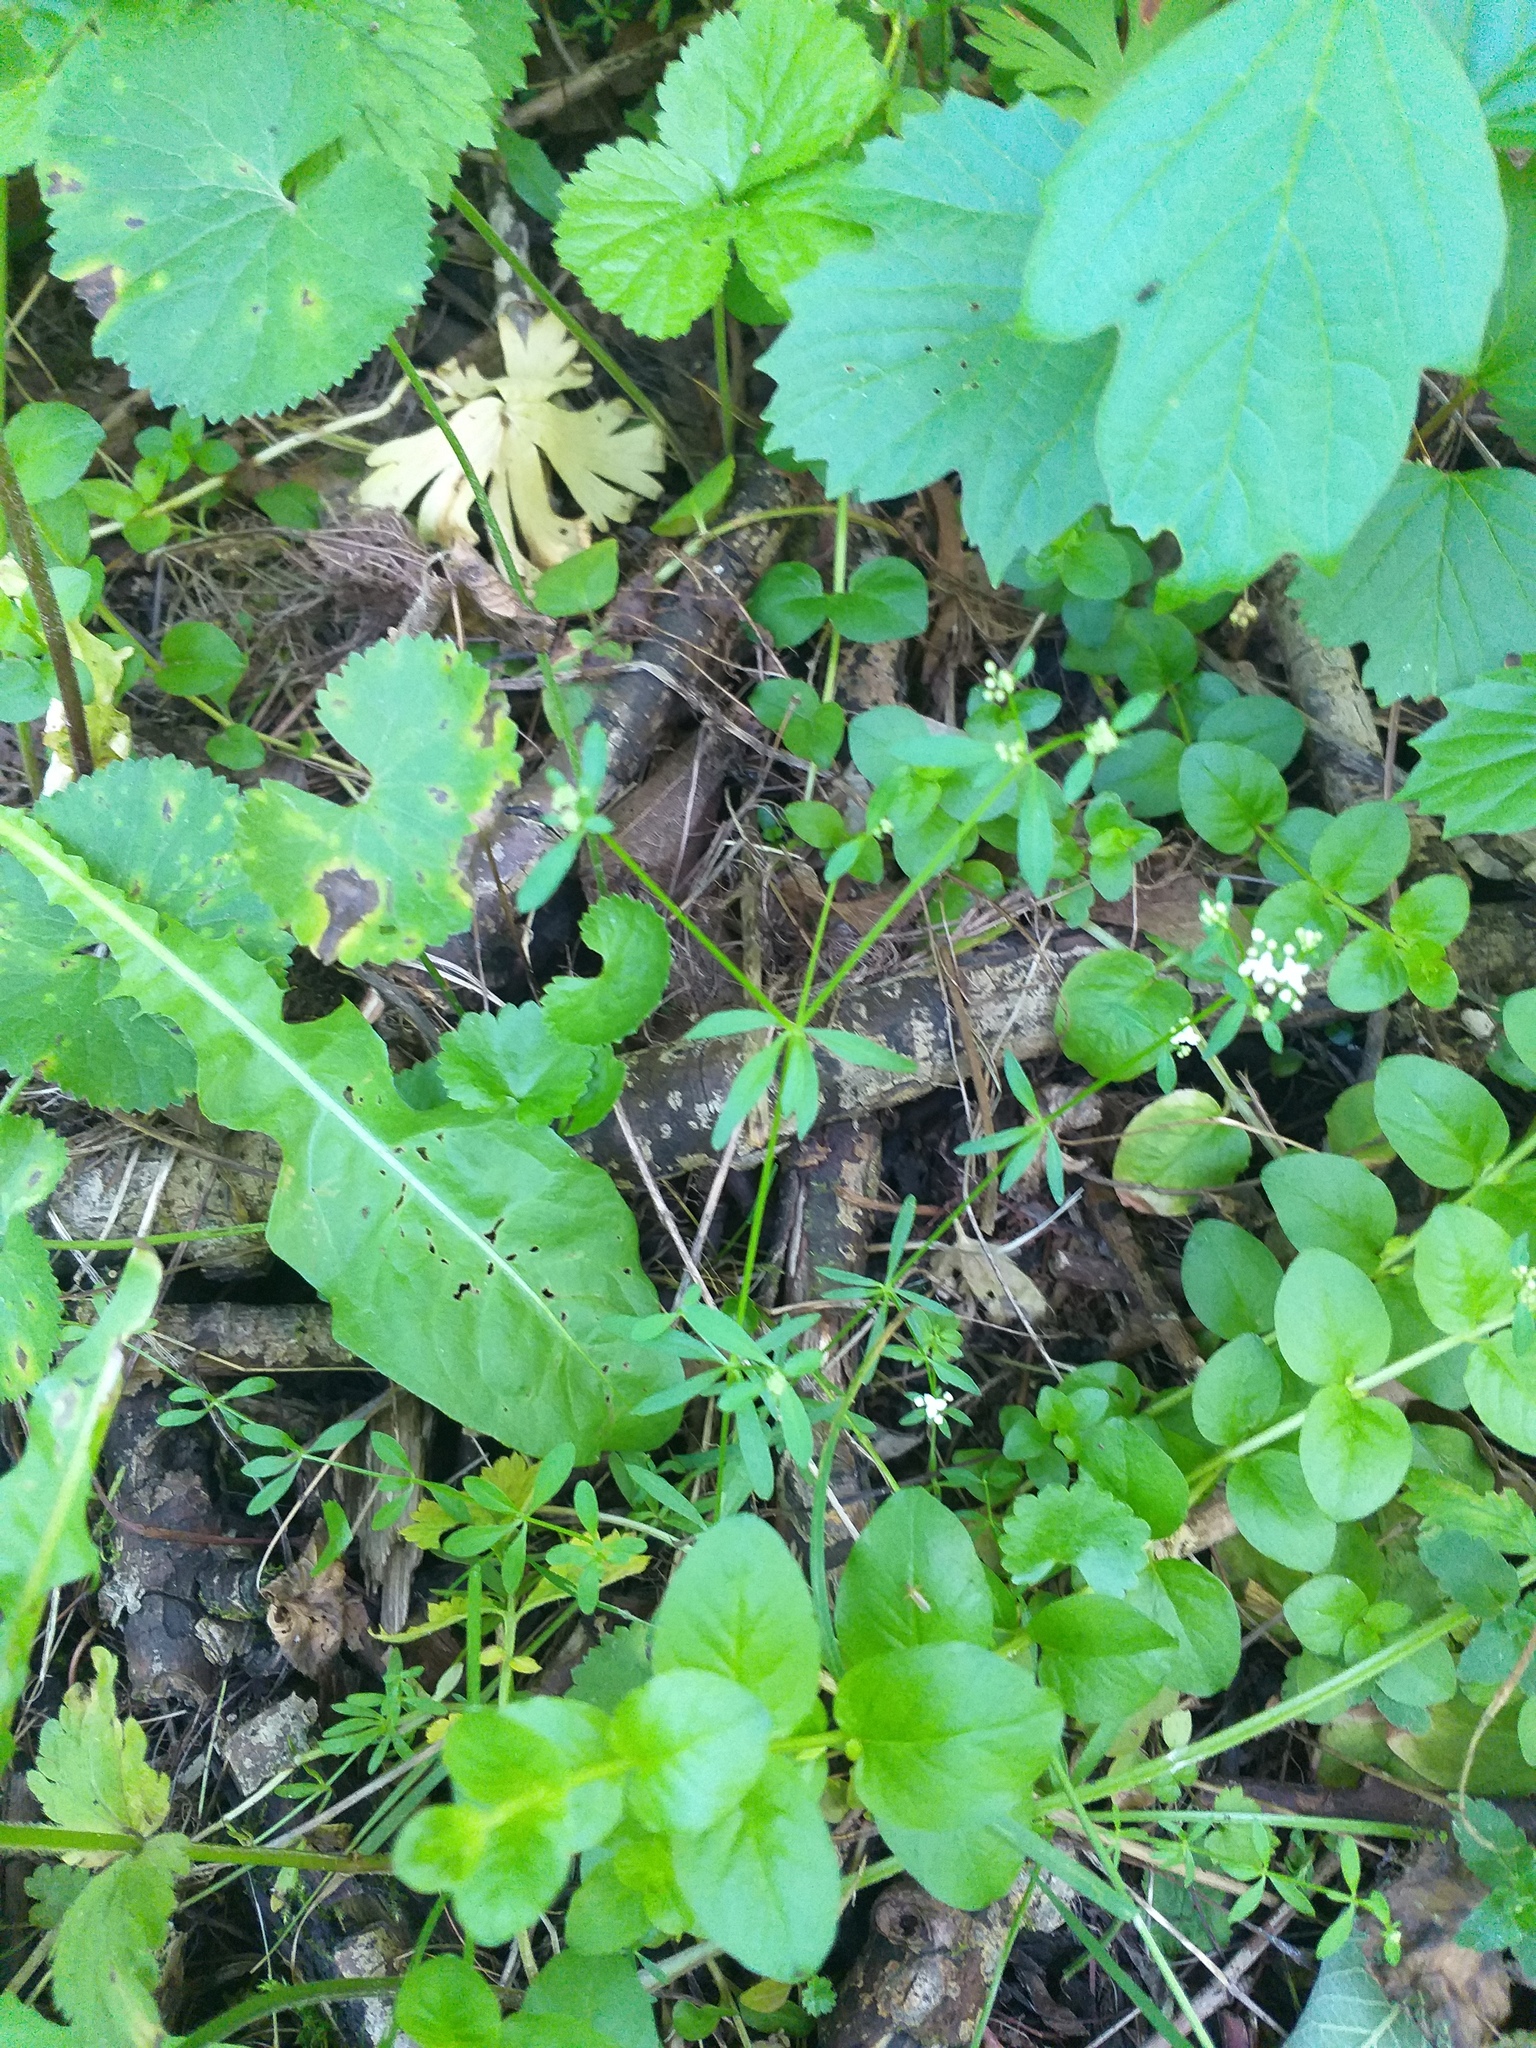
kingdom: Plantae
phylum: Tracheophyta
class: Magnoliopsida
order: Gentianales
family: Rubiaceae
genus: Galium
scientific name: Galium palustre
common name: Common marsh-bedstraw
